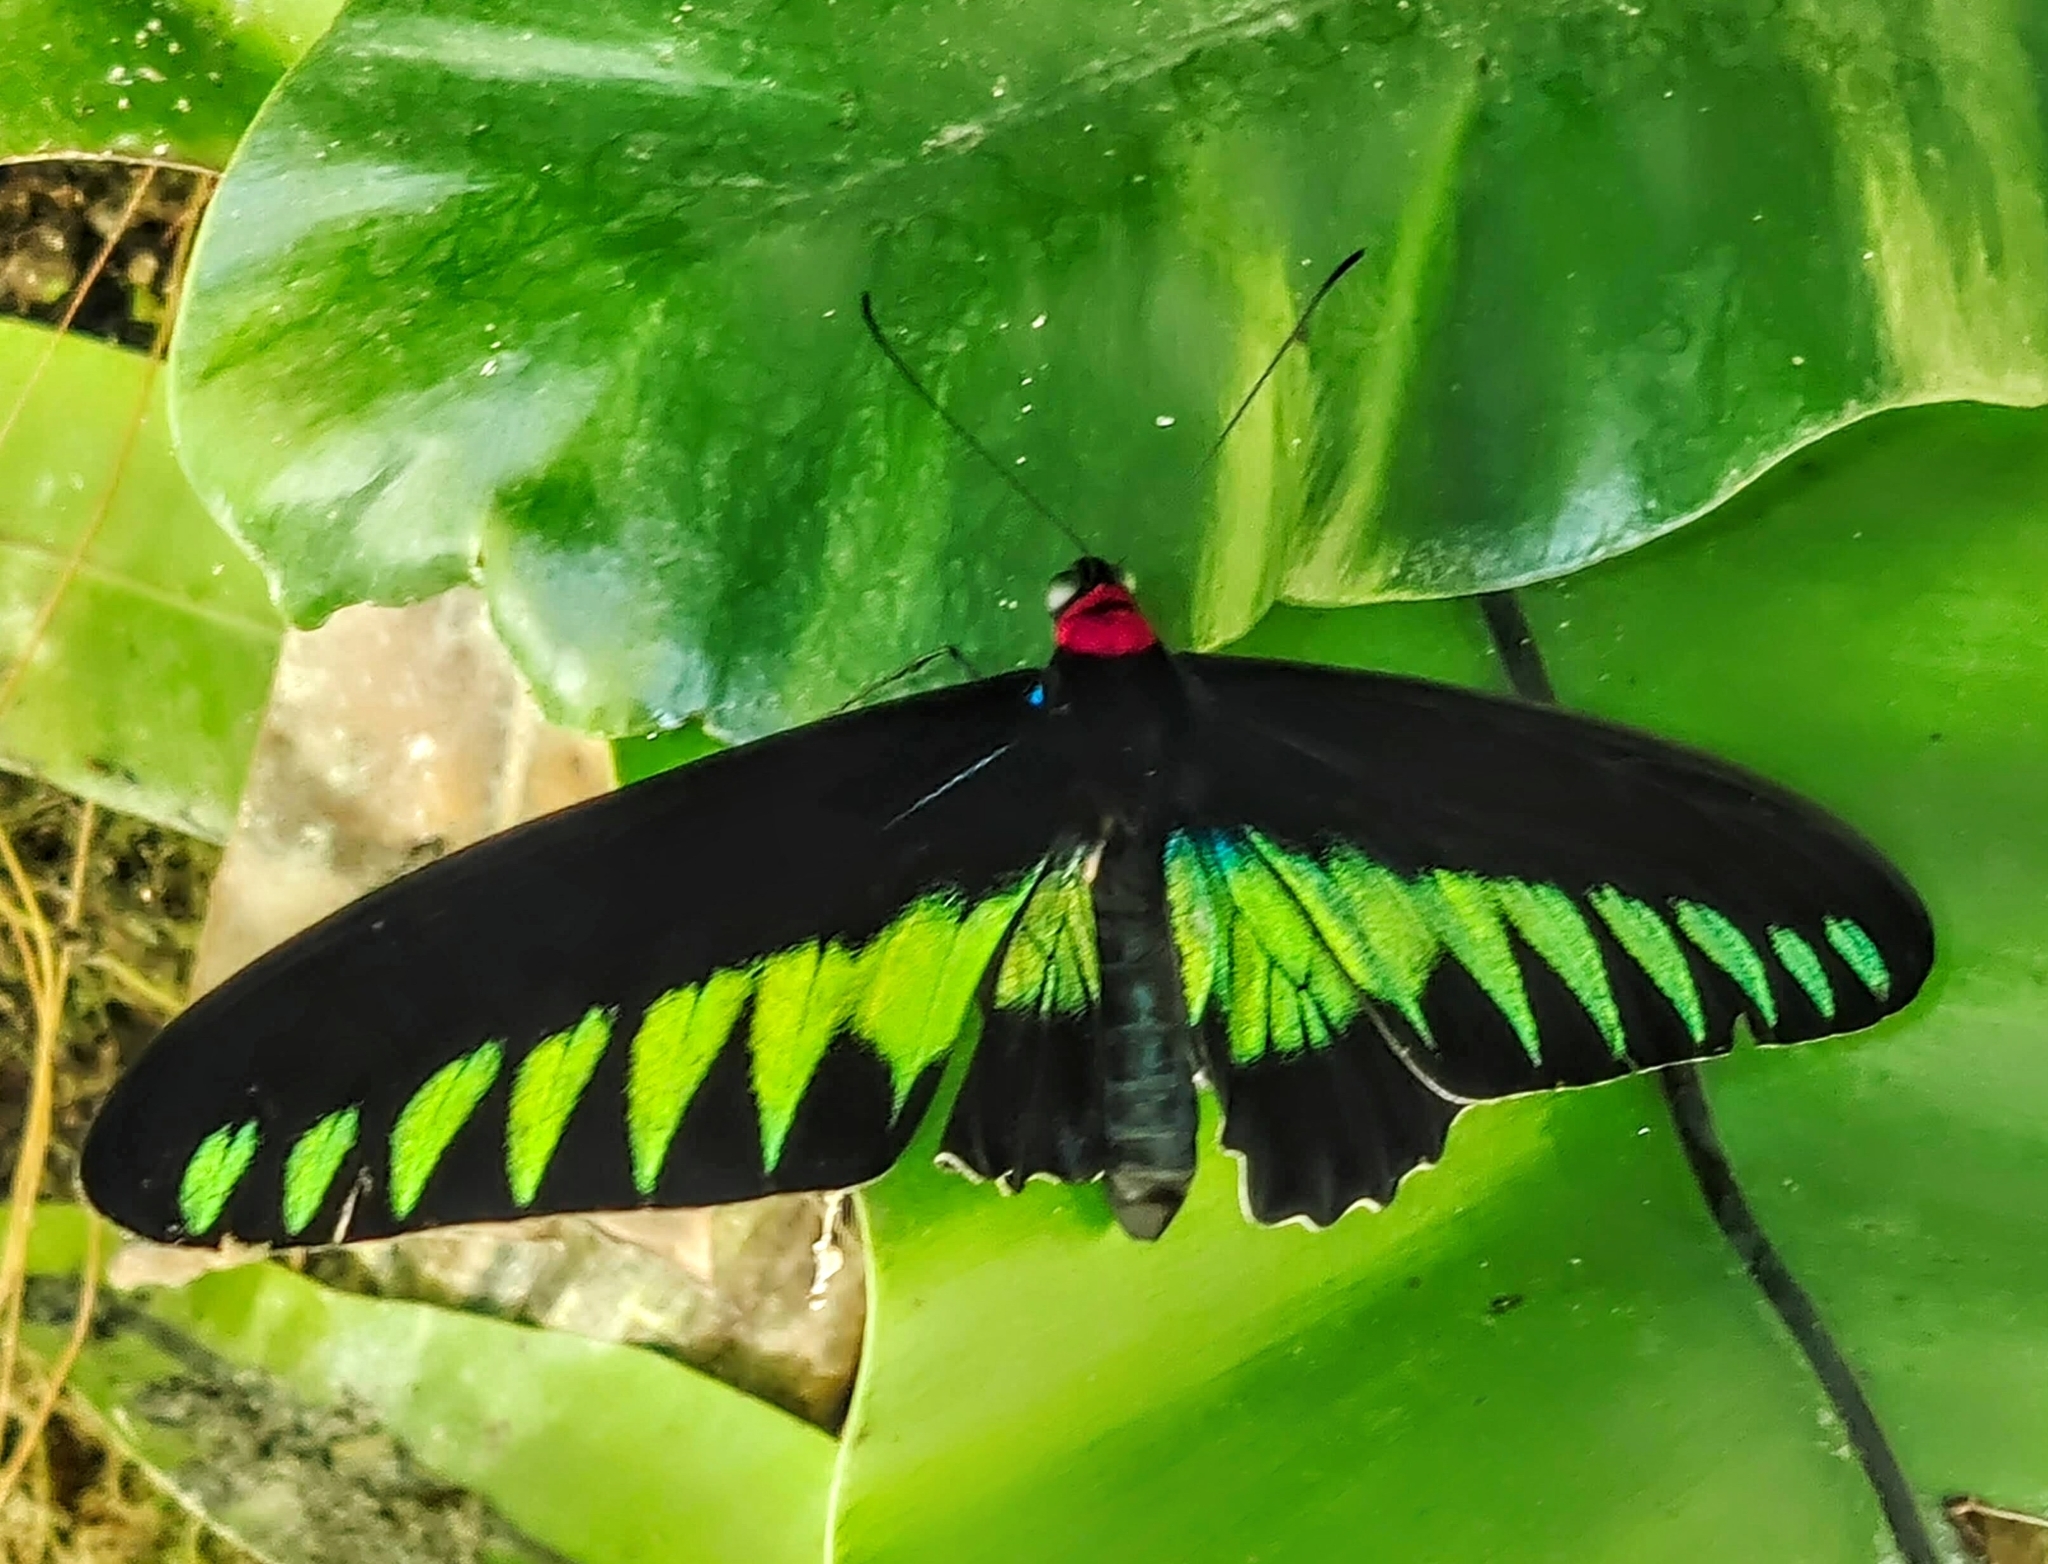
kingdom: Animalia
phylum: Arthropoda
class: Insecta
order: Lepidoptera
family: Papilionidae
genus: Trogonoptera
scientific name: Trogonoptera brookiana
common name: Raja brooke's birdwing
